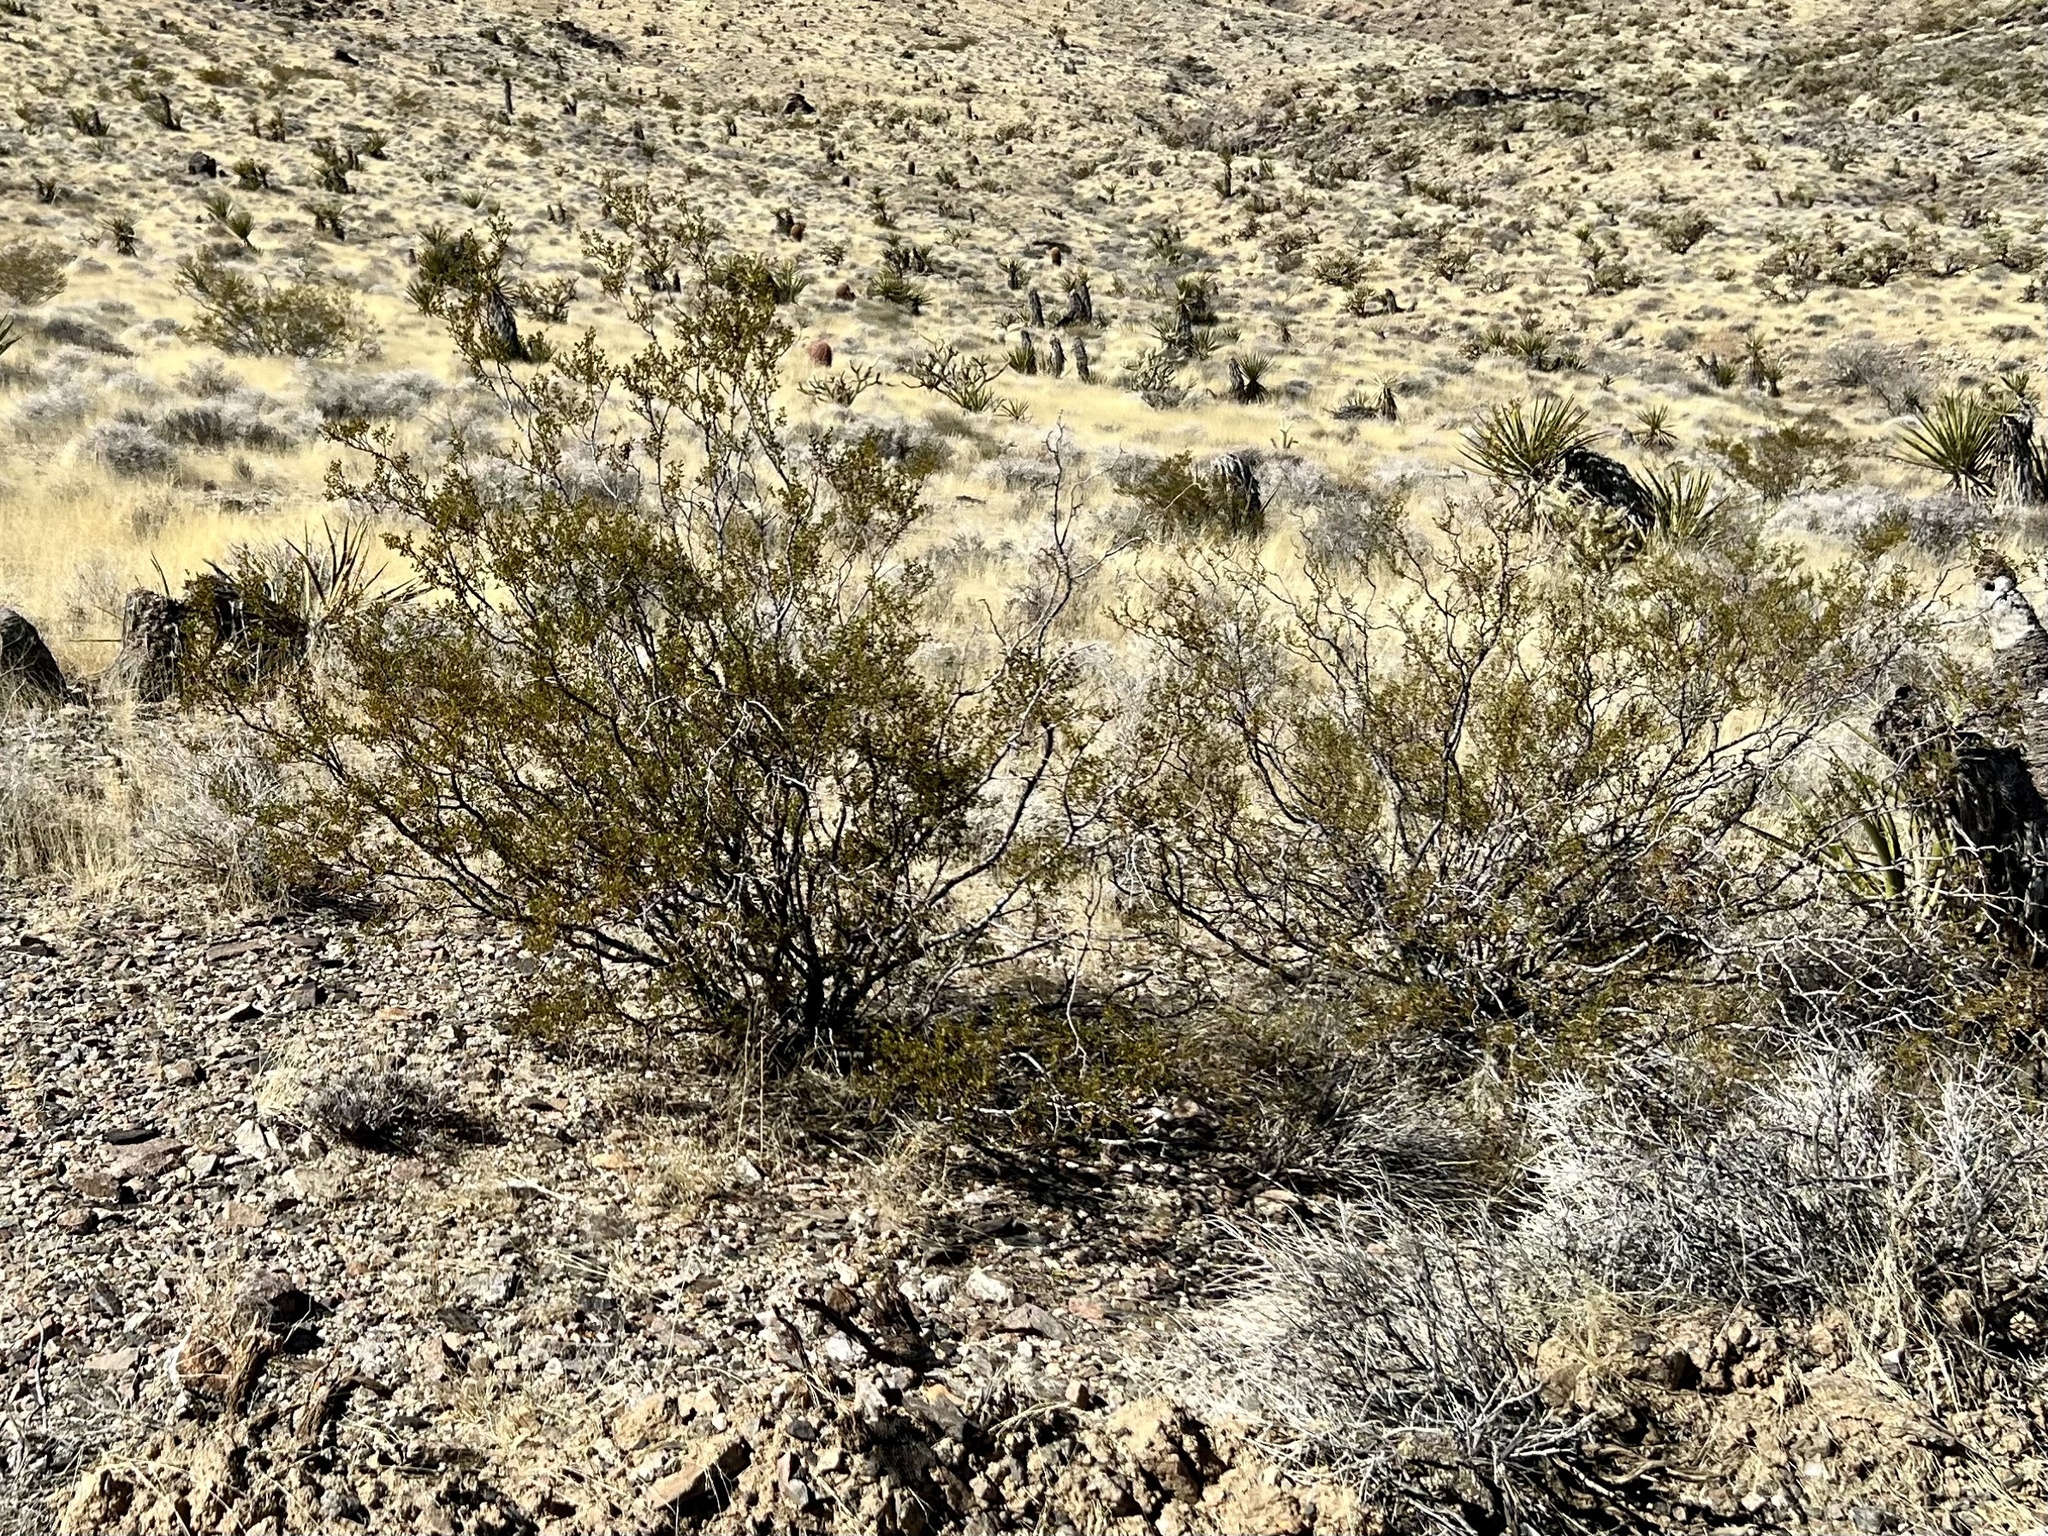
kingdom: Plantae
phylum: Tracheophyta
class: Magnoliopsida
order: Zygophyllales
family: Zygophyllaceae
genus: Larrea
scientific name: Larrea tridentata
